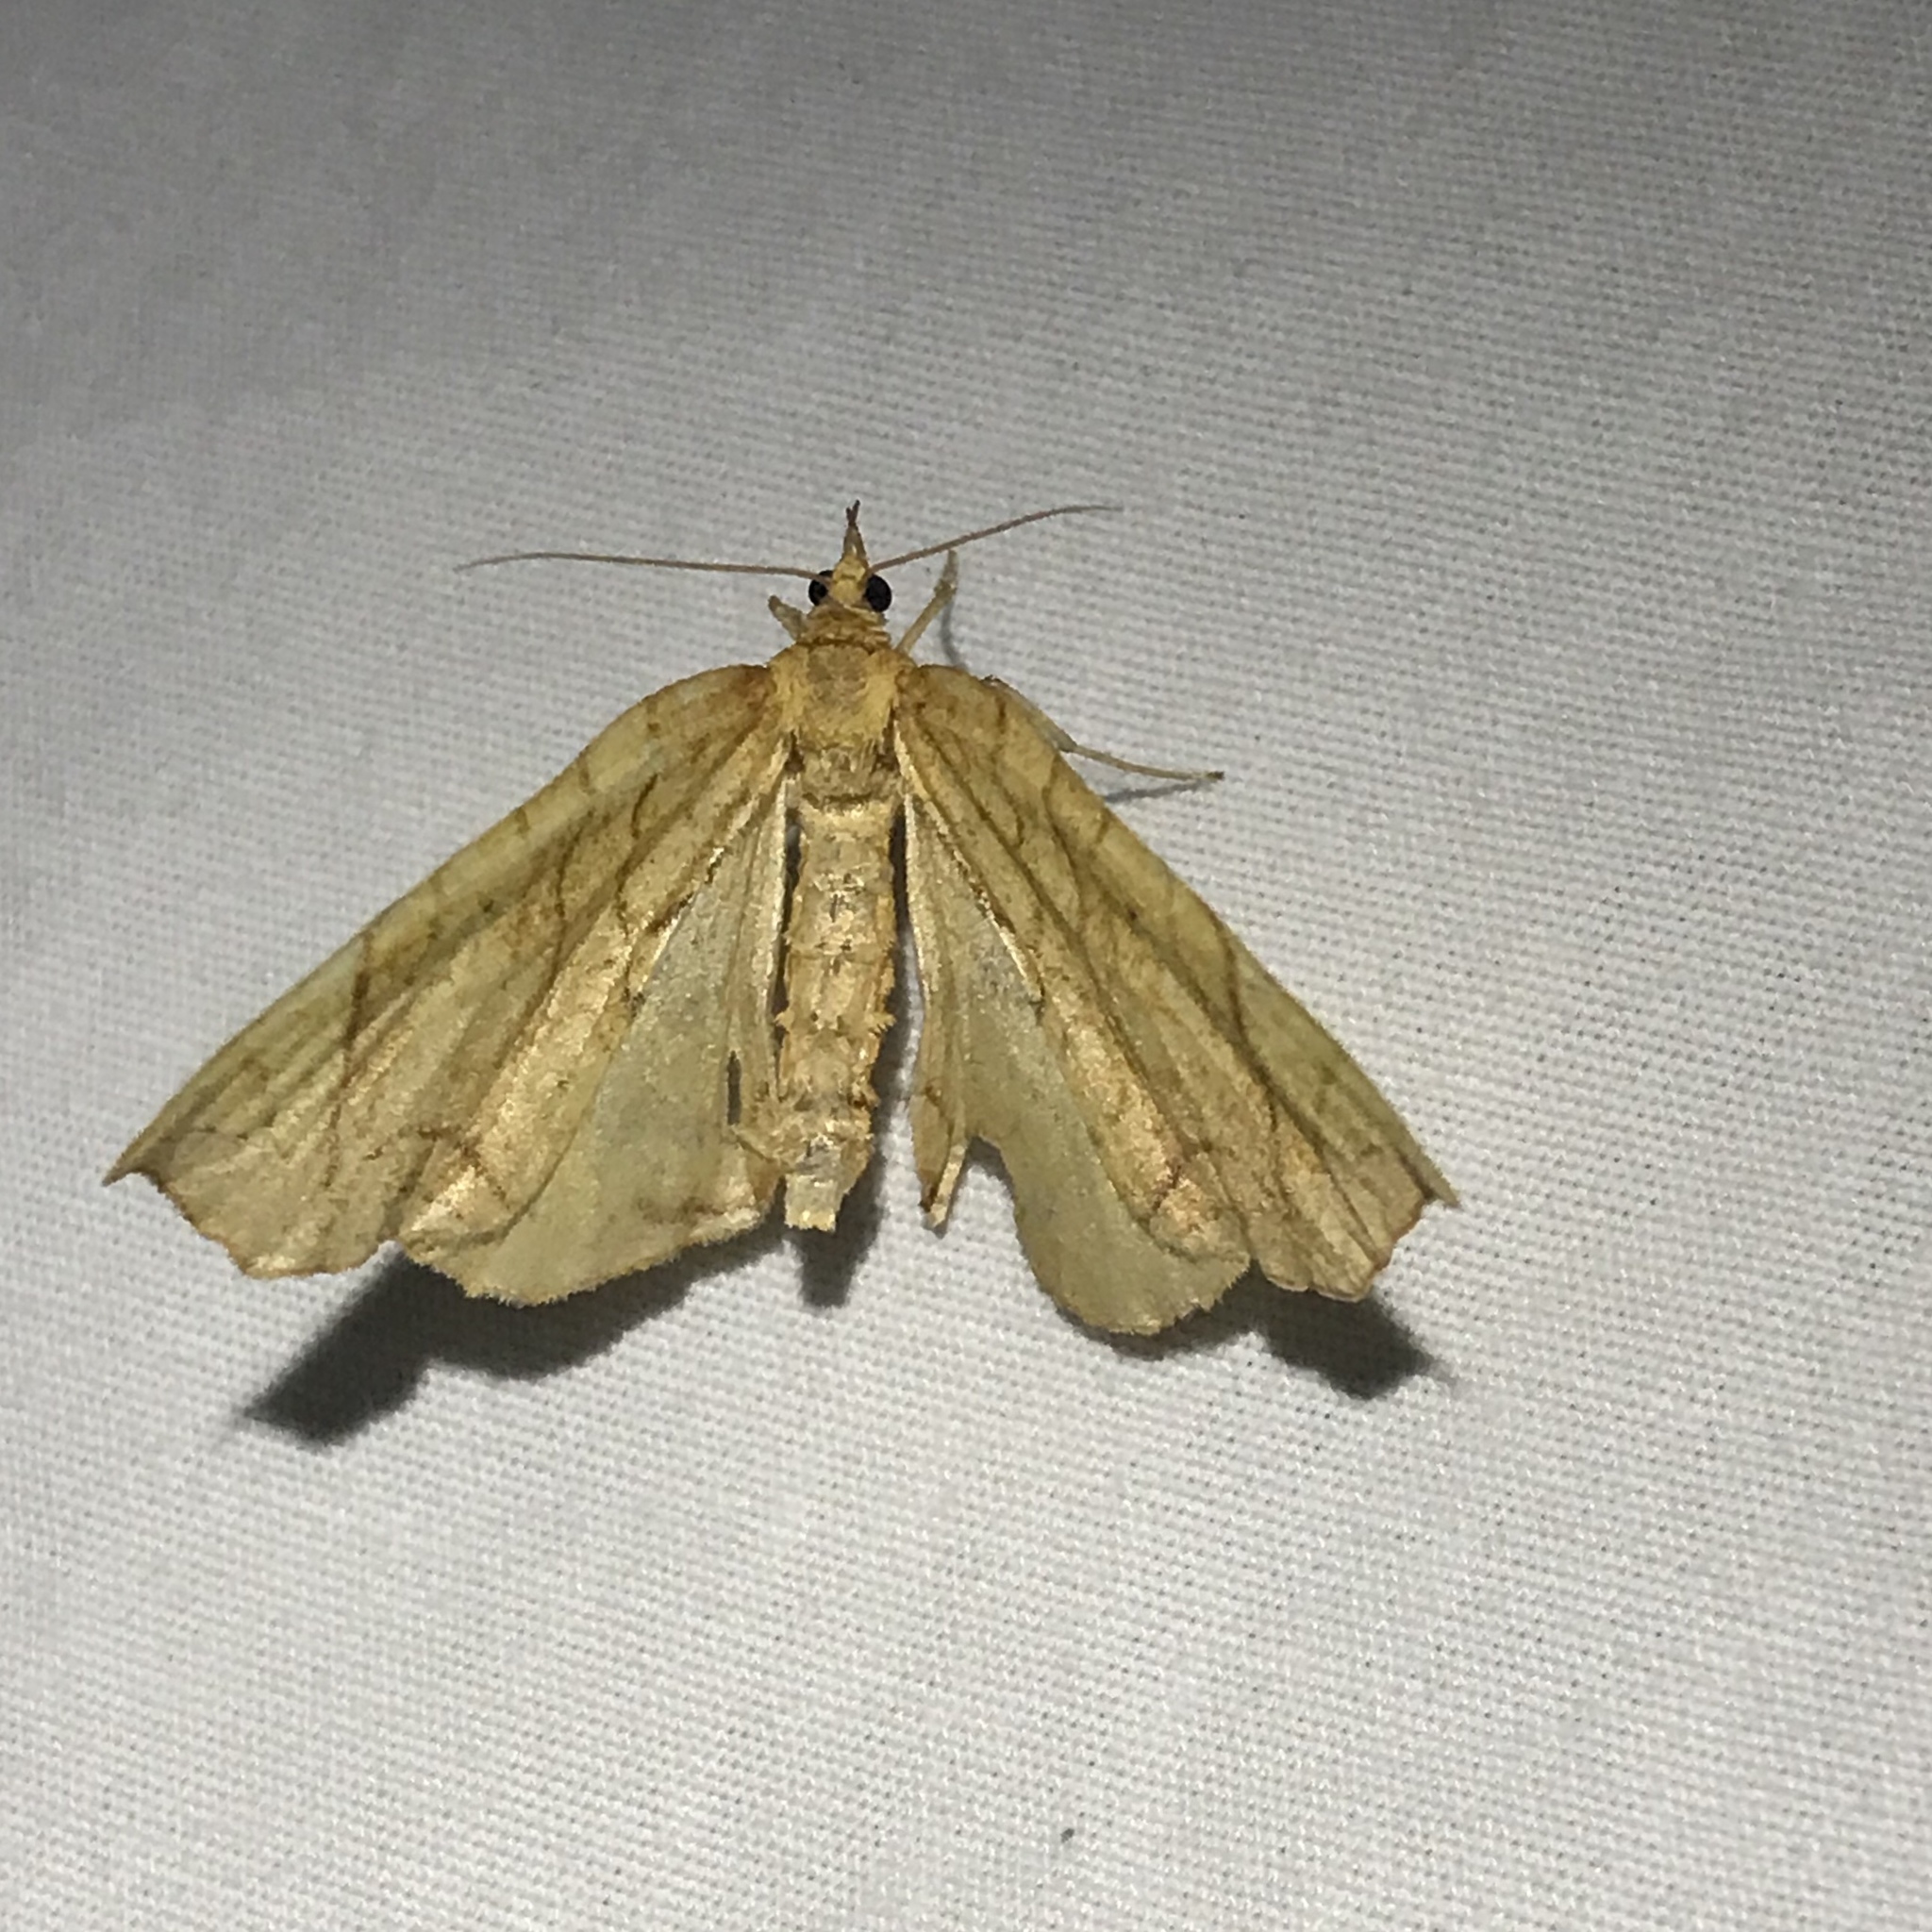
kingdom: Animalia
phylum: Arthropoda
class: Insecta
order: Lepidoptera
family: Geometridae
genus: Eulithis
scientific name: Eulithis
